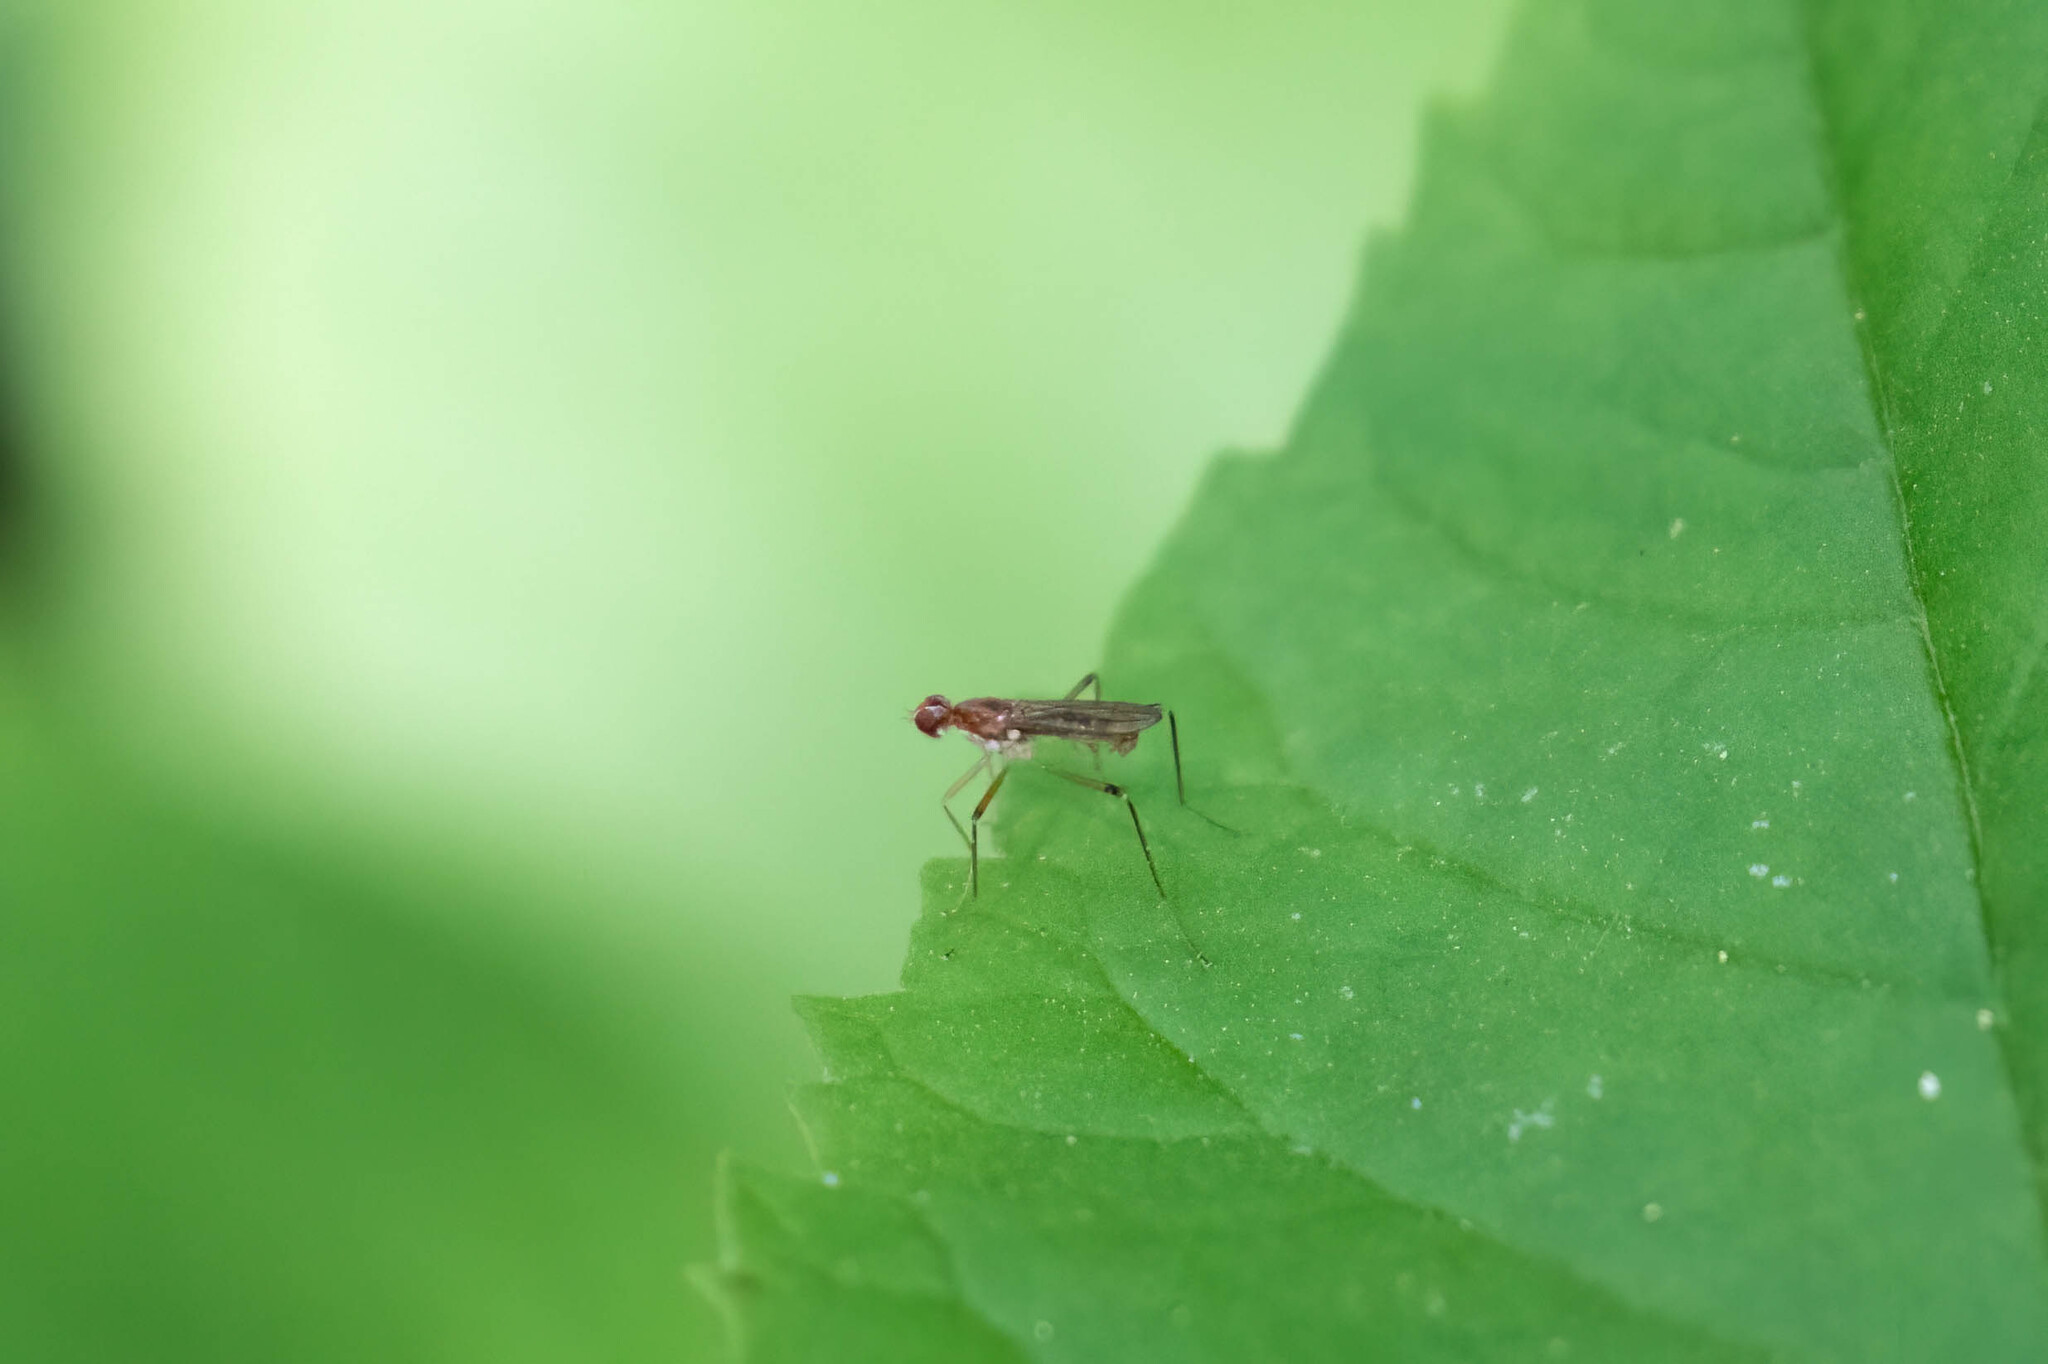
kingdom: Animalia
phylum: Arthropoda
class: Insecta
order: Diptera
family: Micropezidae
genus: Compsobata
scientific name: Compsobata univitta
